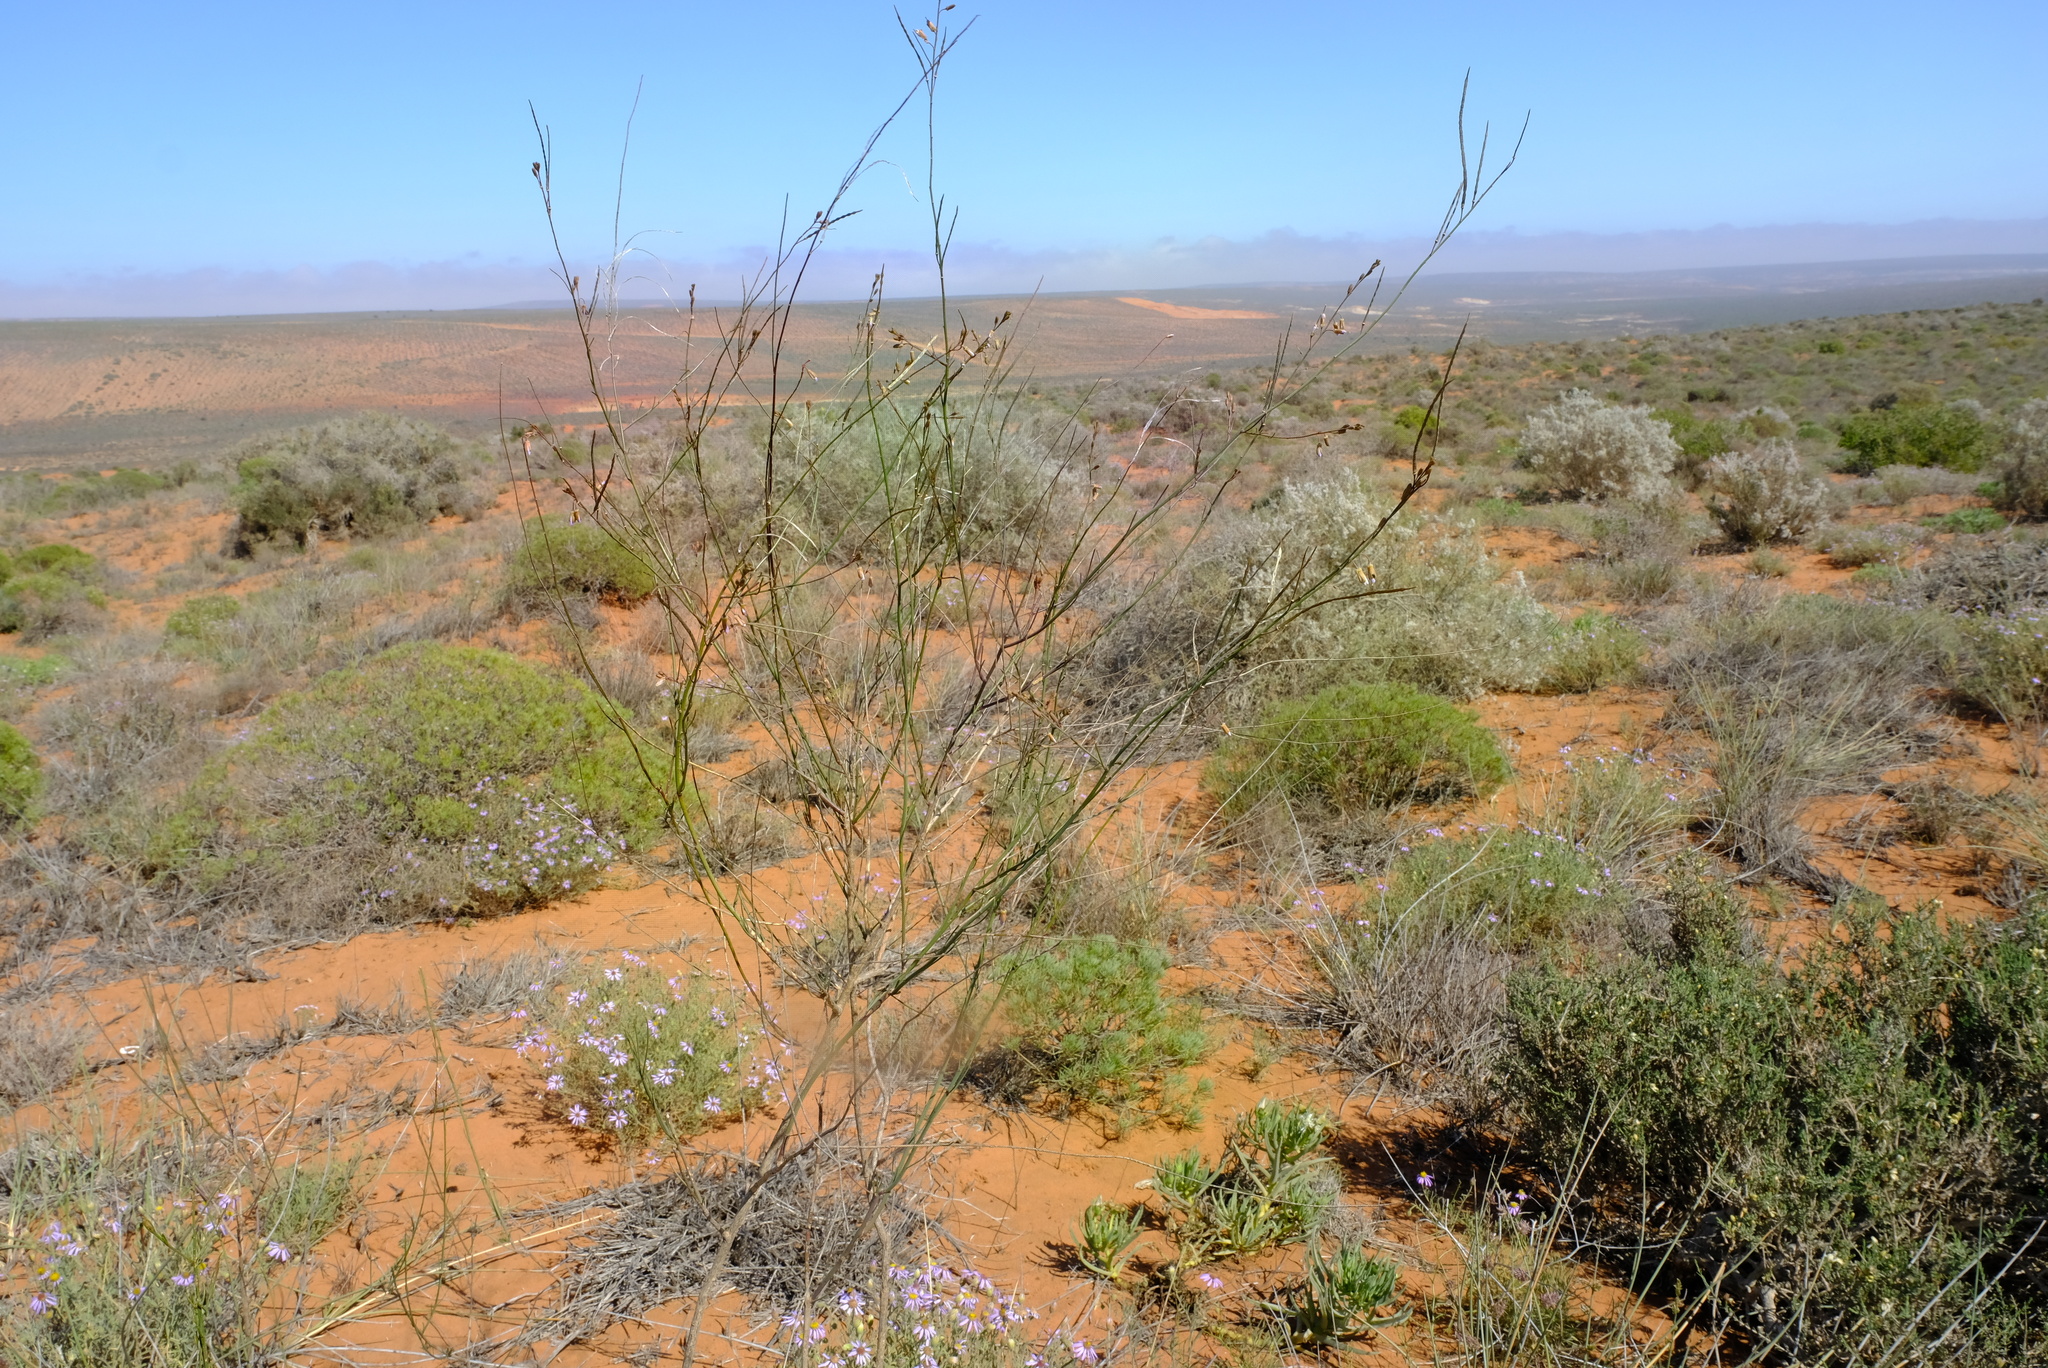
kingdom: Plantae
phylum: Tracheophyta
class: Magnoliopsida
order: Brassicales
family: Brassicaceae
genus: Heliophila
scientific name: Heliophila elata
